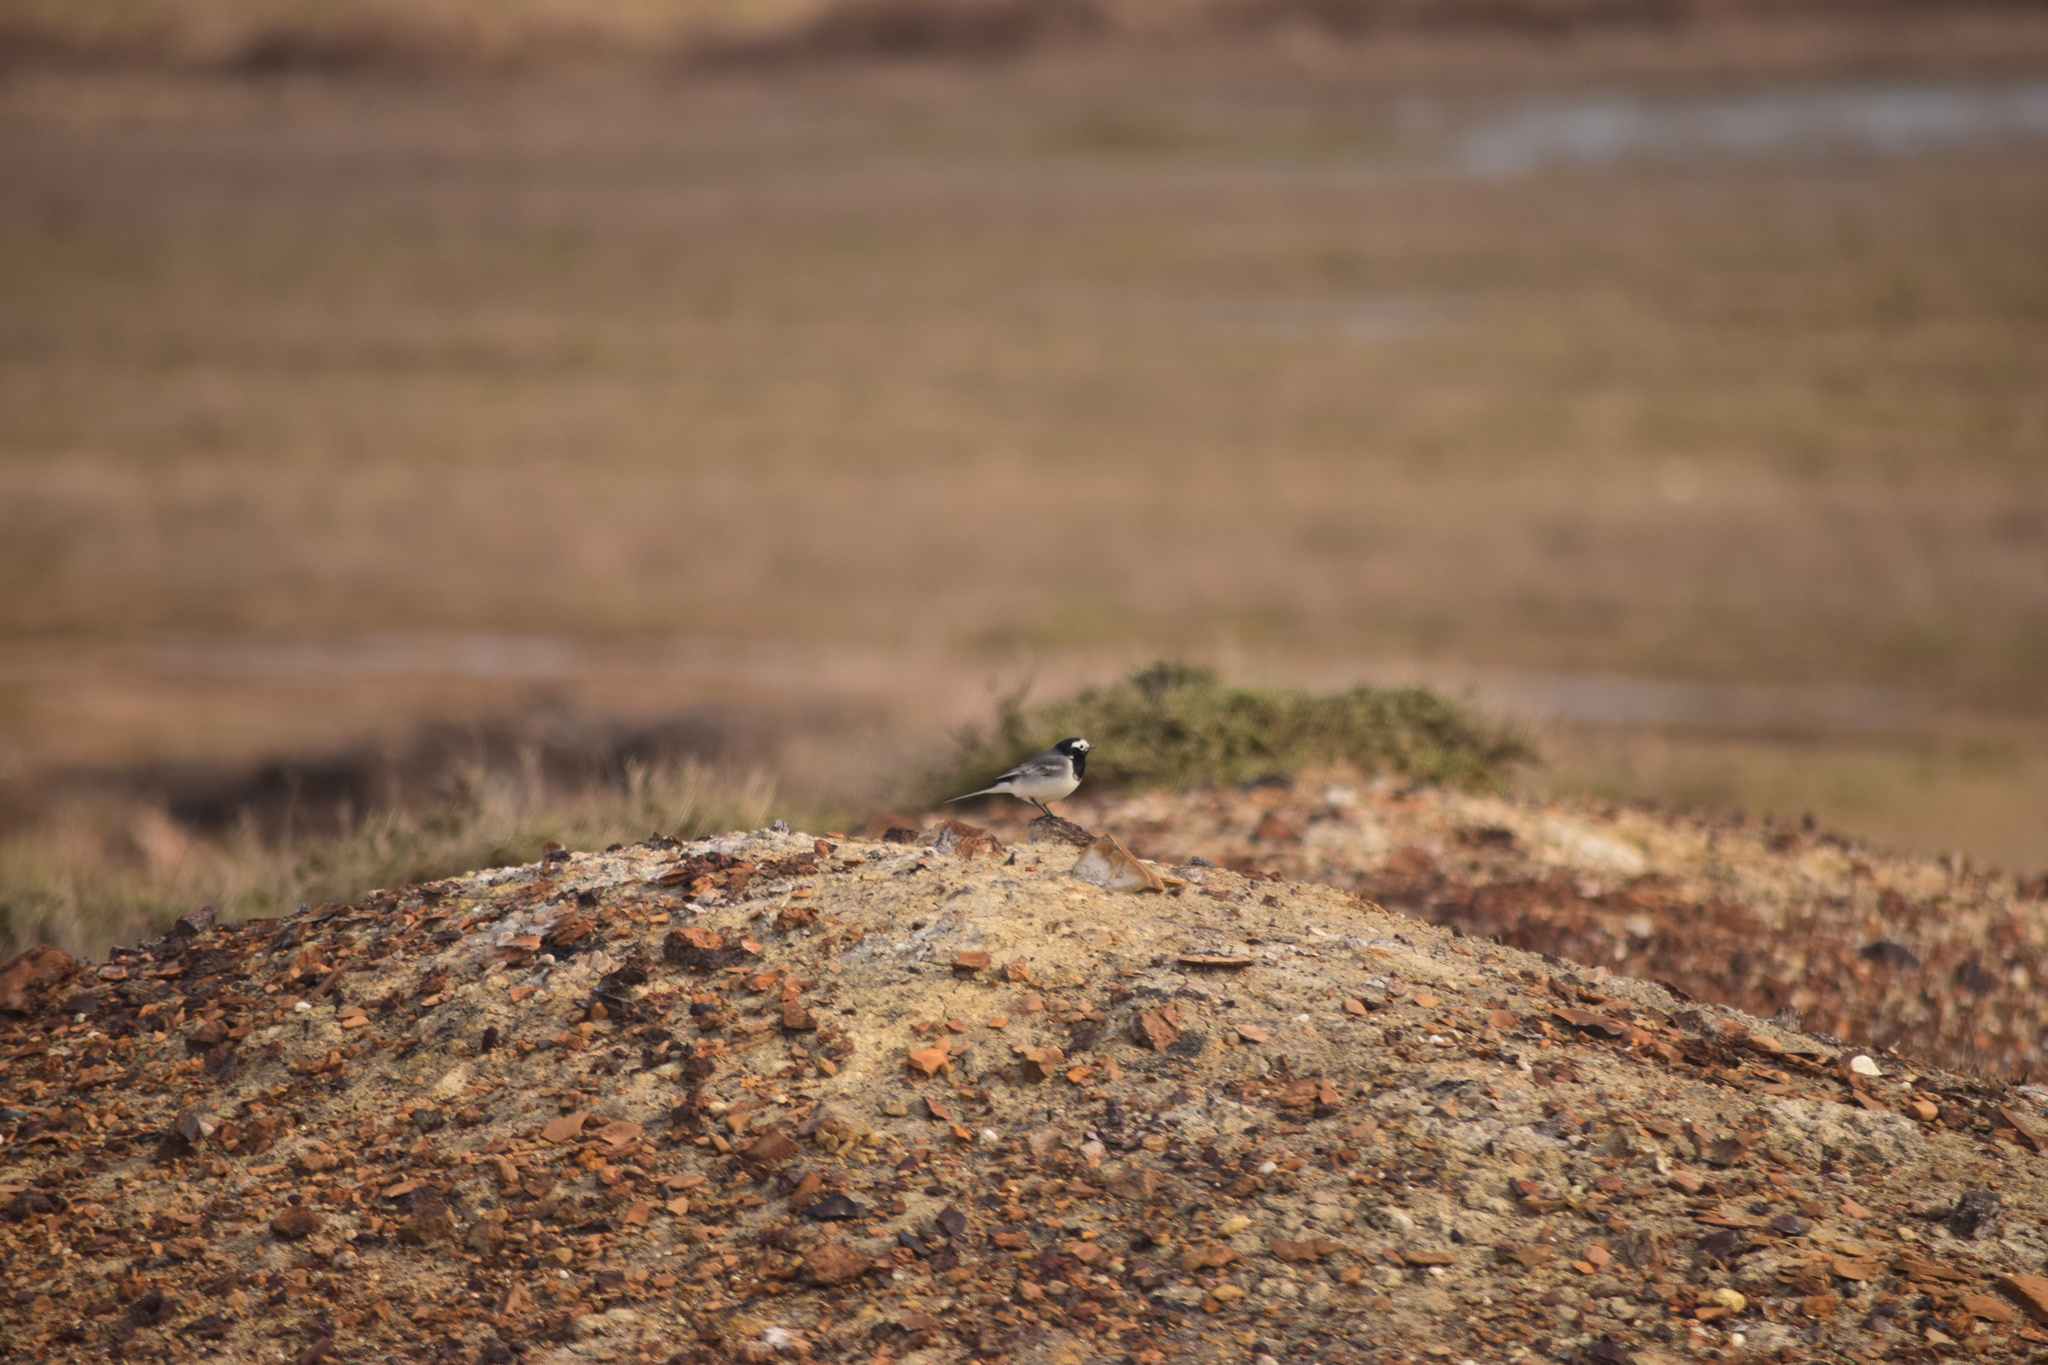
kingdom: Animalia
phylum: Chordata
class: Aves
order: Passeriformes
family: Motacillidae
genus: Motacilla
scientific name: Motacilla alba
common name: White wagtail
